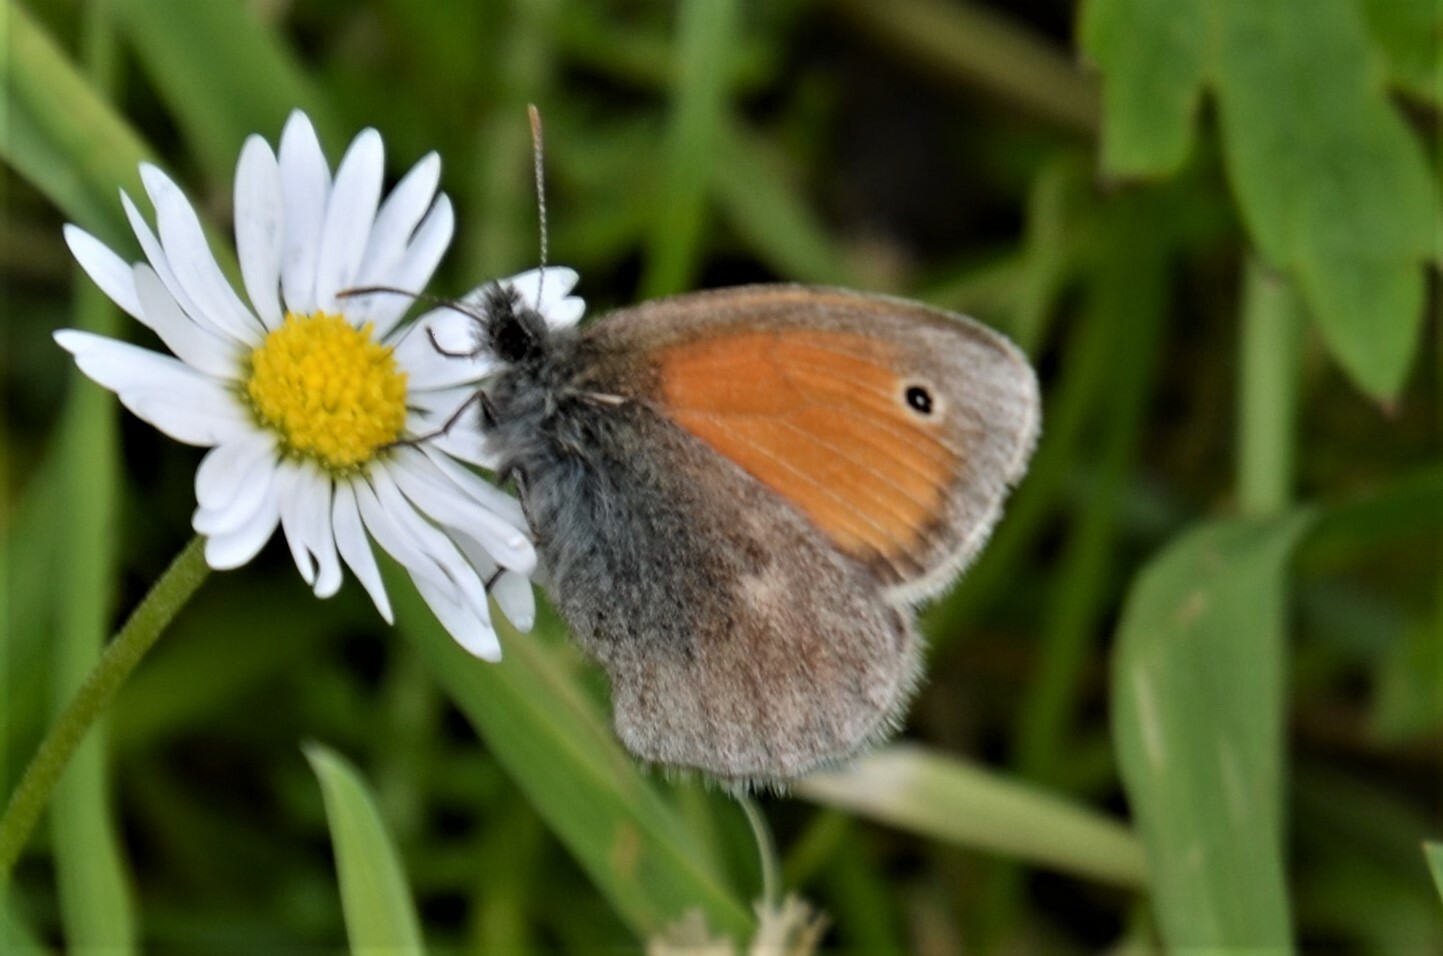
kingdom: Animalia
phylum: Arthropoda
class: Insecta
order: Lepidoptera
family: Nymphalidae
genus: Coenonympha
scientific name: Coenonympha pamphilus
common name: Small heath
